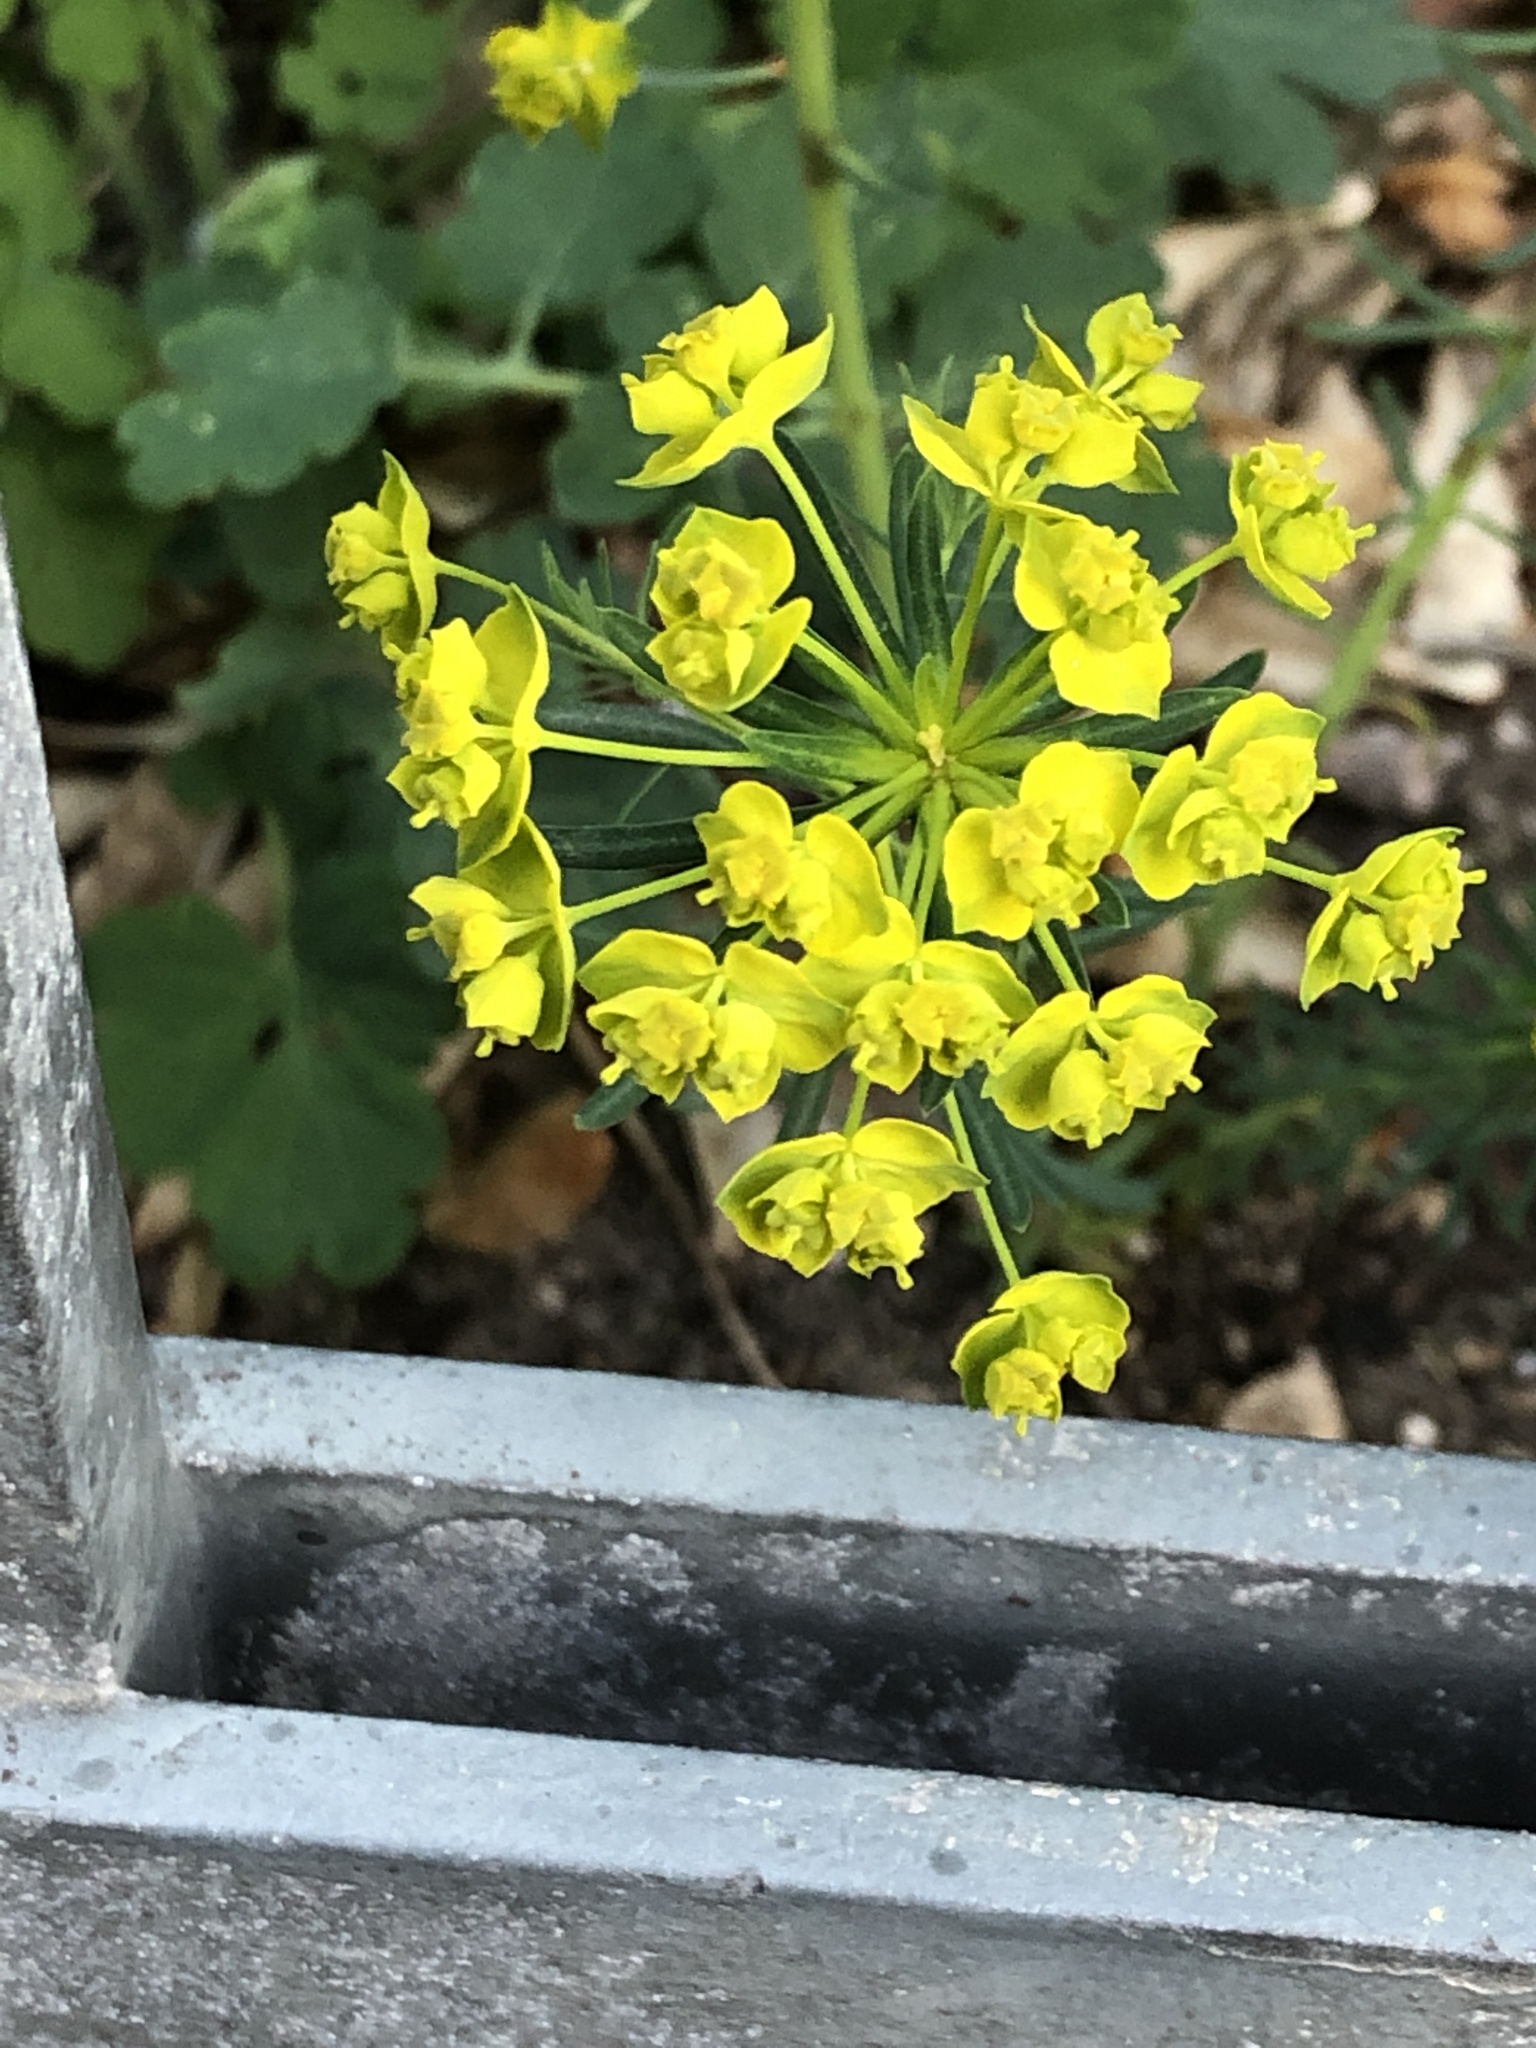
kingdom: Plantae
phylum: Tracheophyta
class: Magnoliopsida
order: Malpighiales
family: Euphorbiaceae
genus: Euphorbia
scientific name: Euphorbia cyparissias
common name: Cypress spurge
